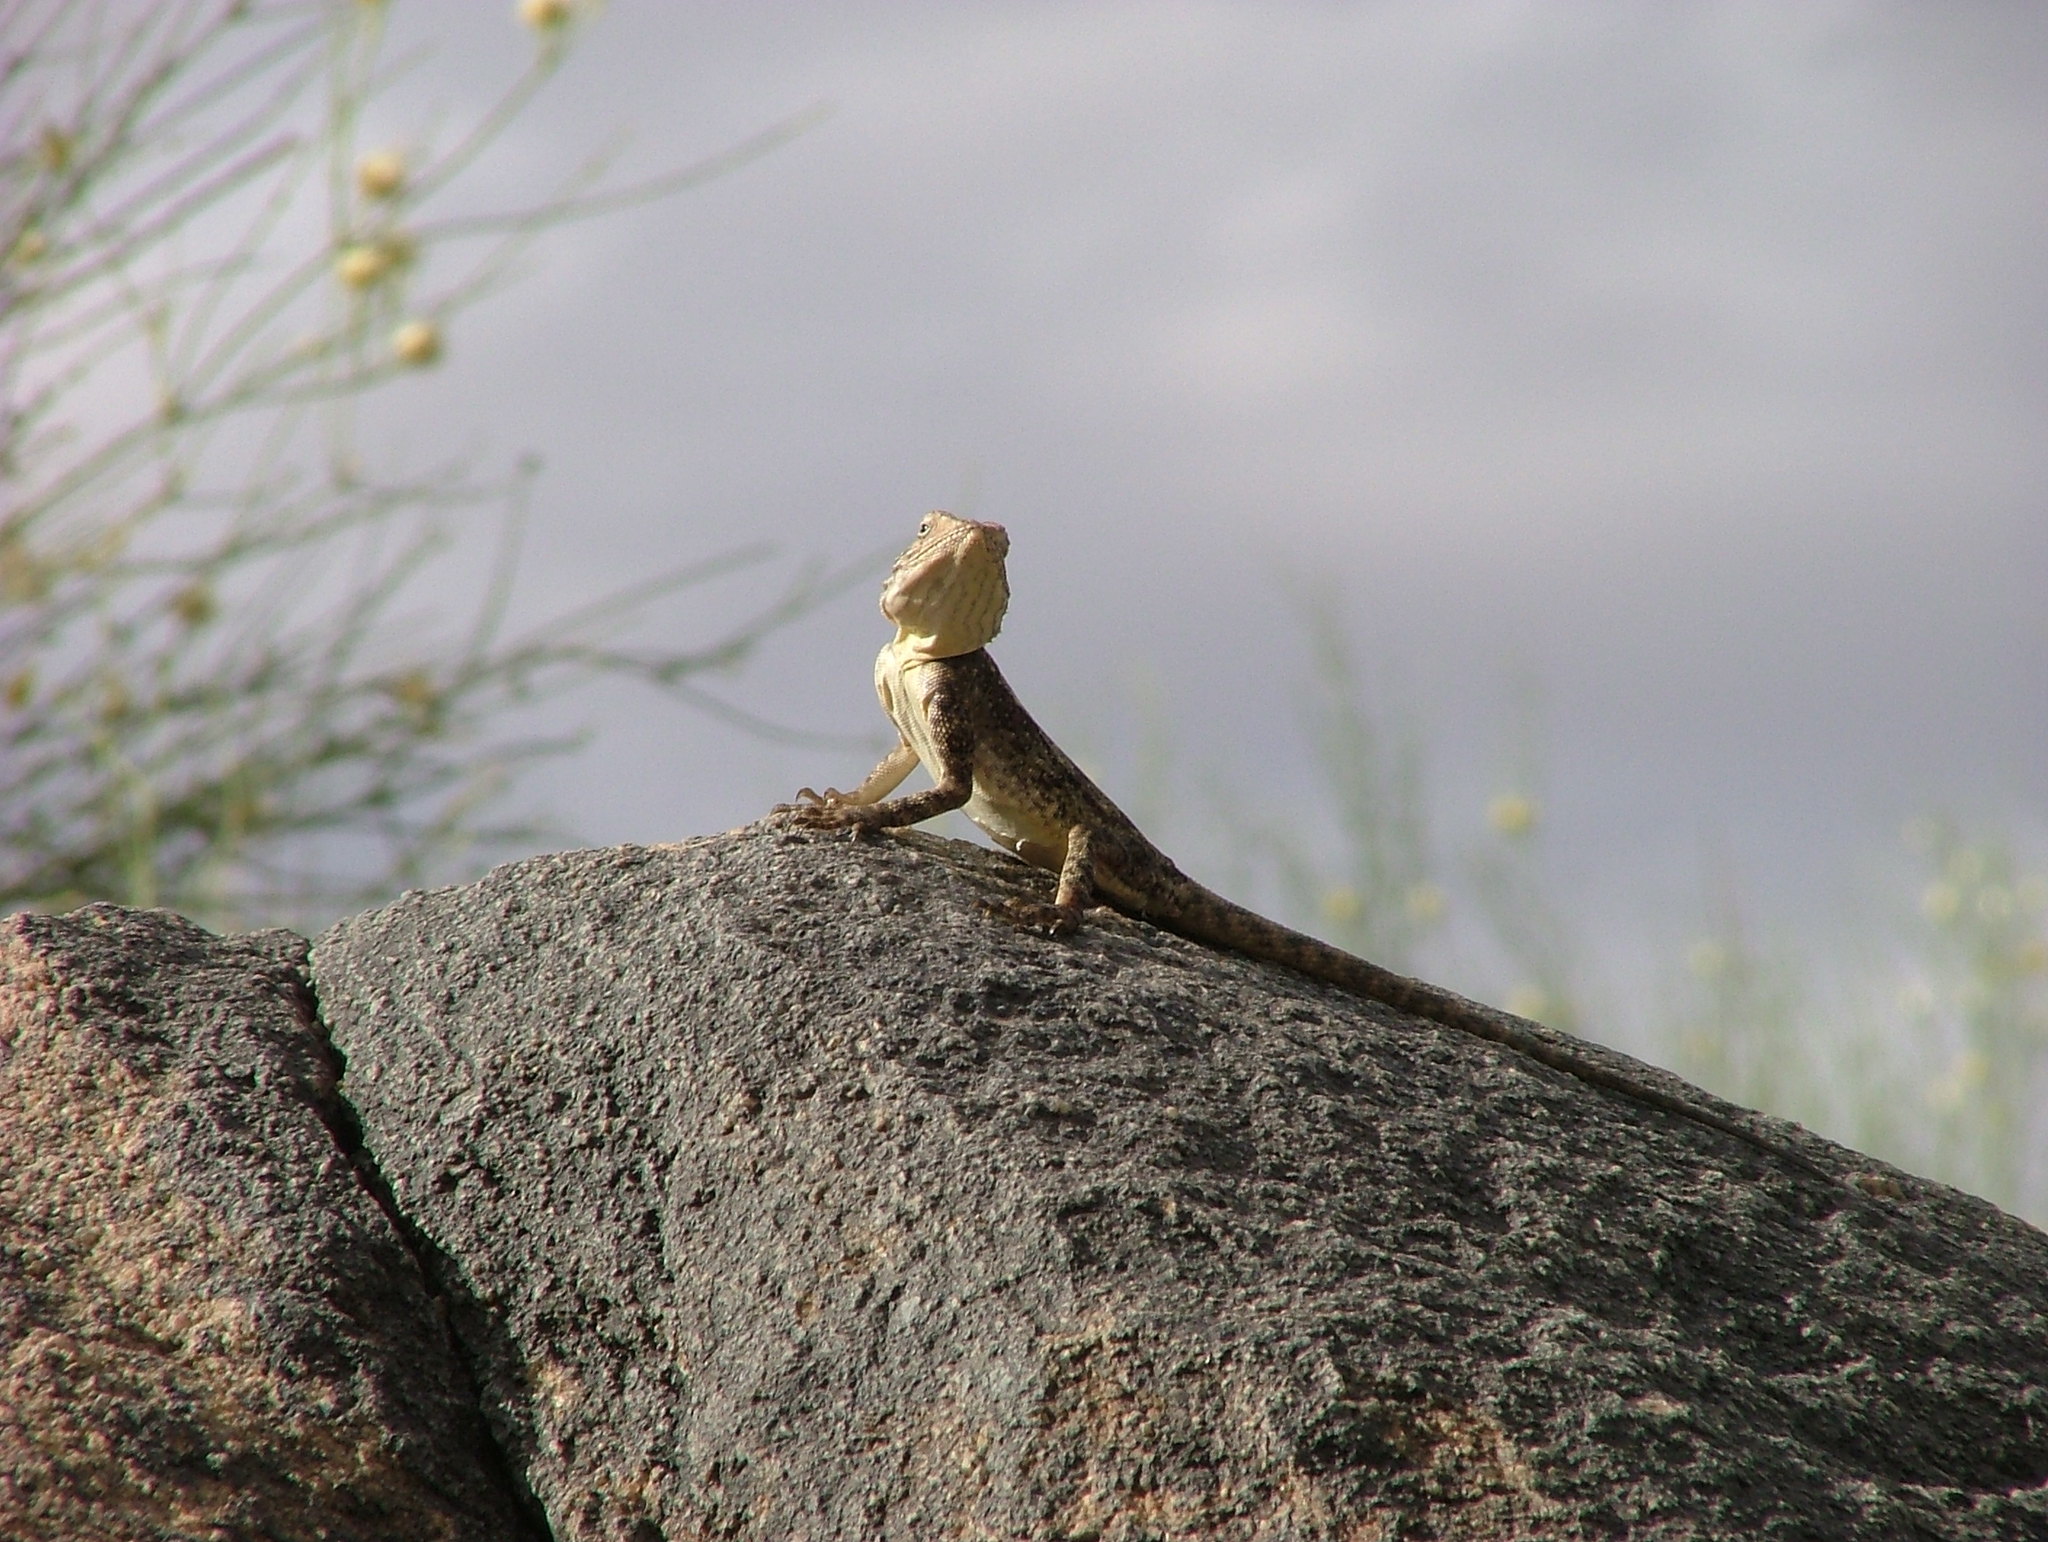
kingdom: Animalia
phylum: Chordata
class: Squamata
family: Agamidae
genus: Agama
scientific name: Agama atra
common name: Southern african rock agama
